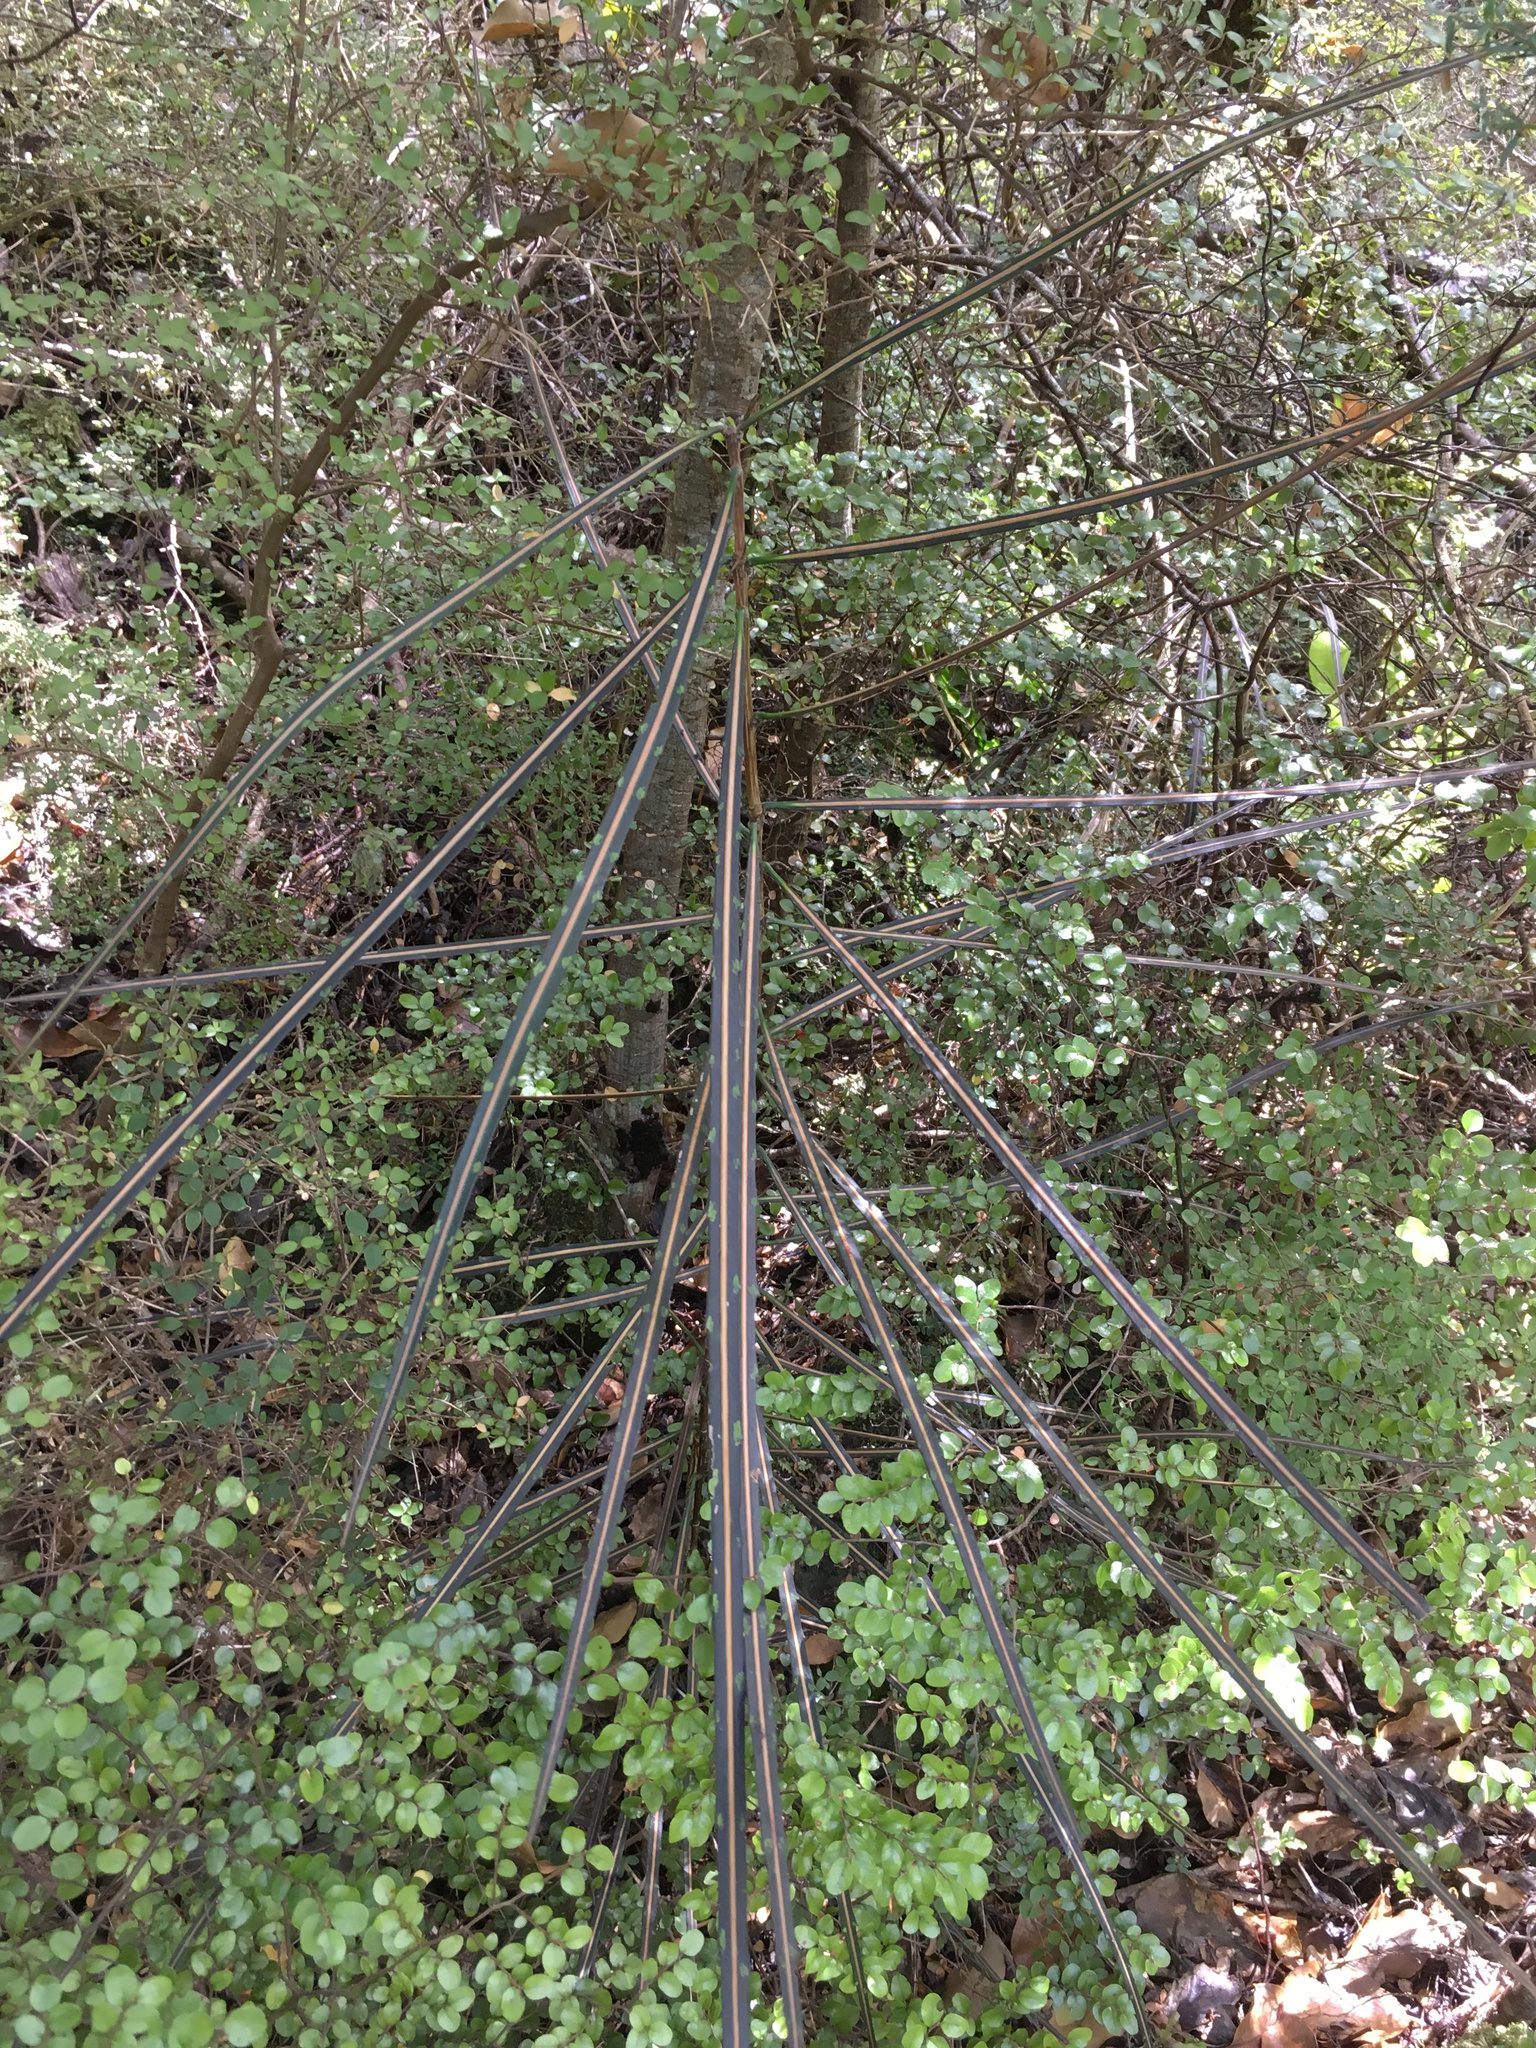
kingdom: Plantae
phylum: Tracheophyta
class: Magnoliopsida
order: Apiales
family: Araliaceae
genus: Pseudopanax
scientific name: Pseudopanax crassifolius
